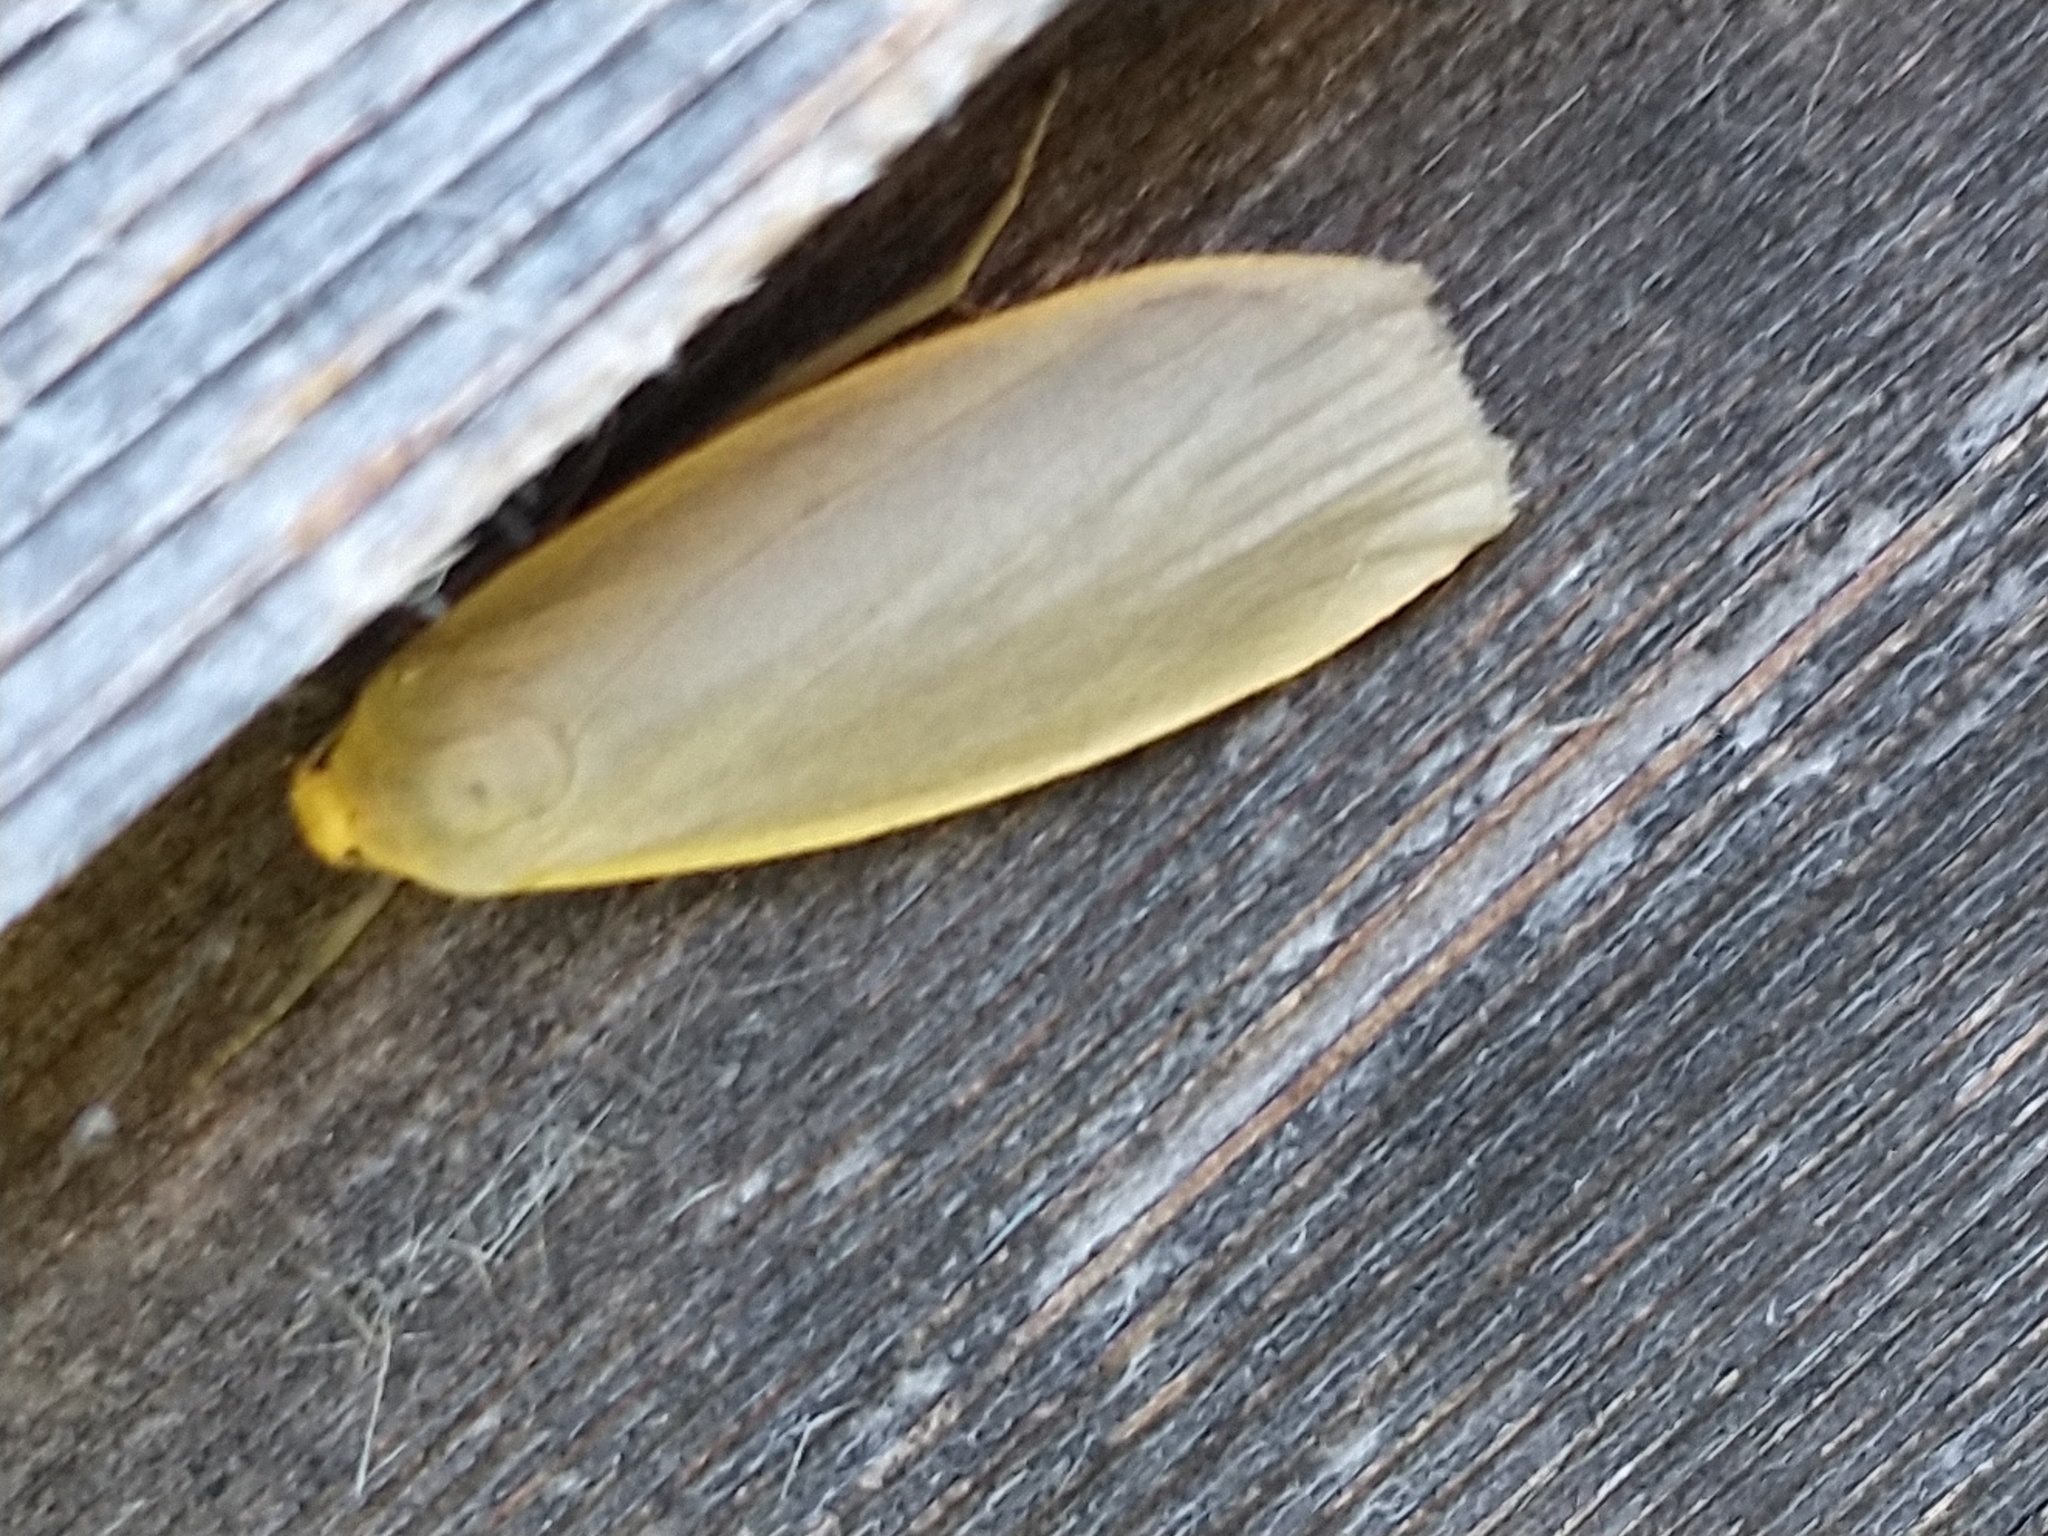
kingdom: Animalia
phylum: Arthropoda
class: Insecta
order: Lepidoptera
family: Erebidae
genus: Collita
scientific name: Collita griseola
